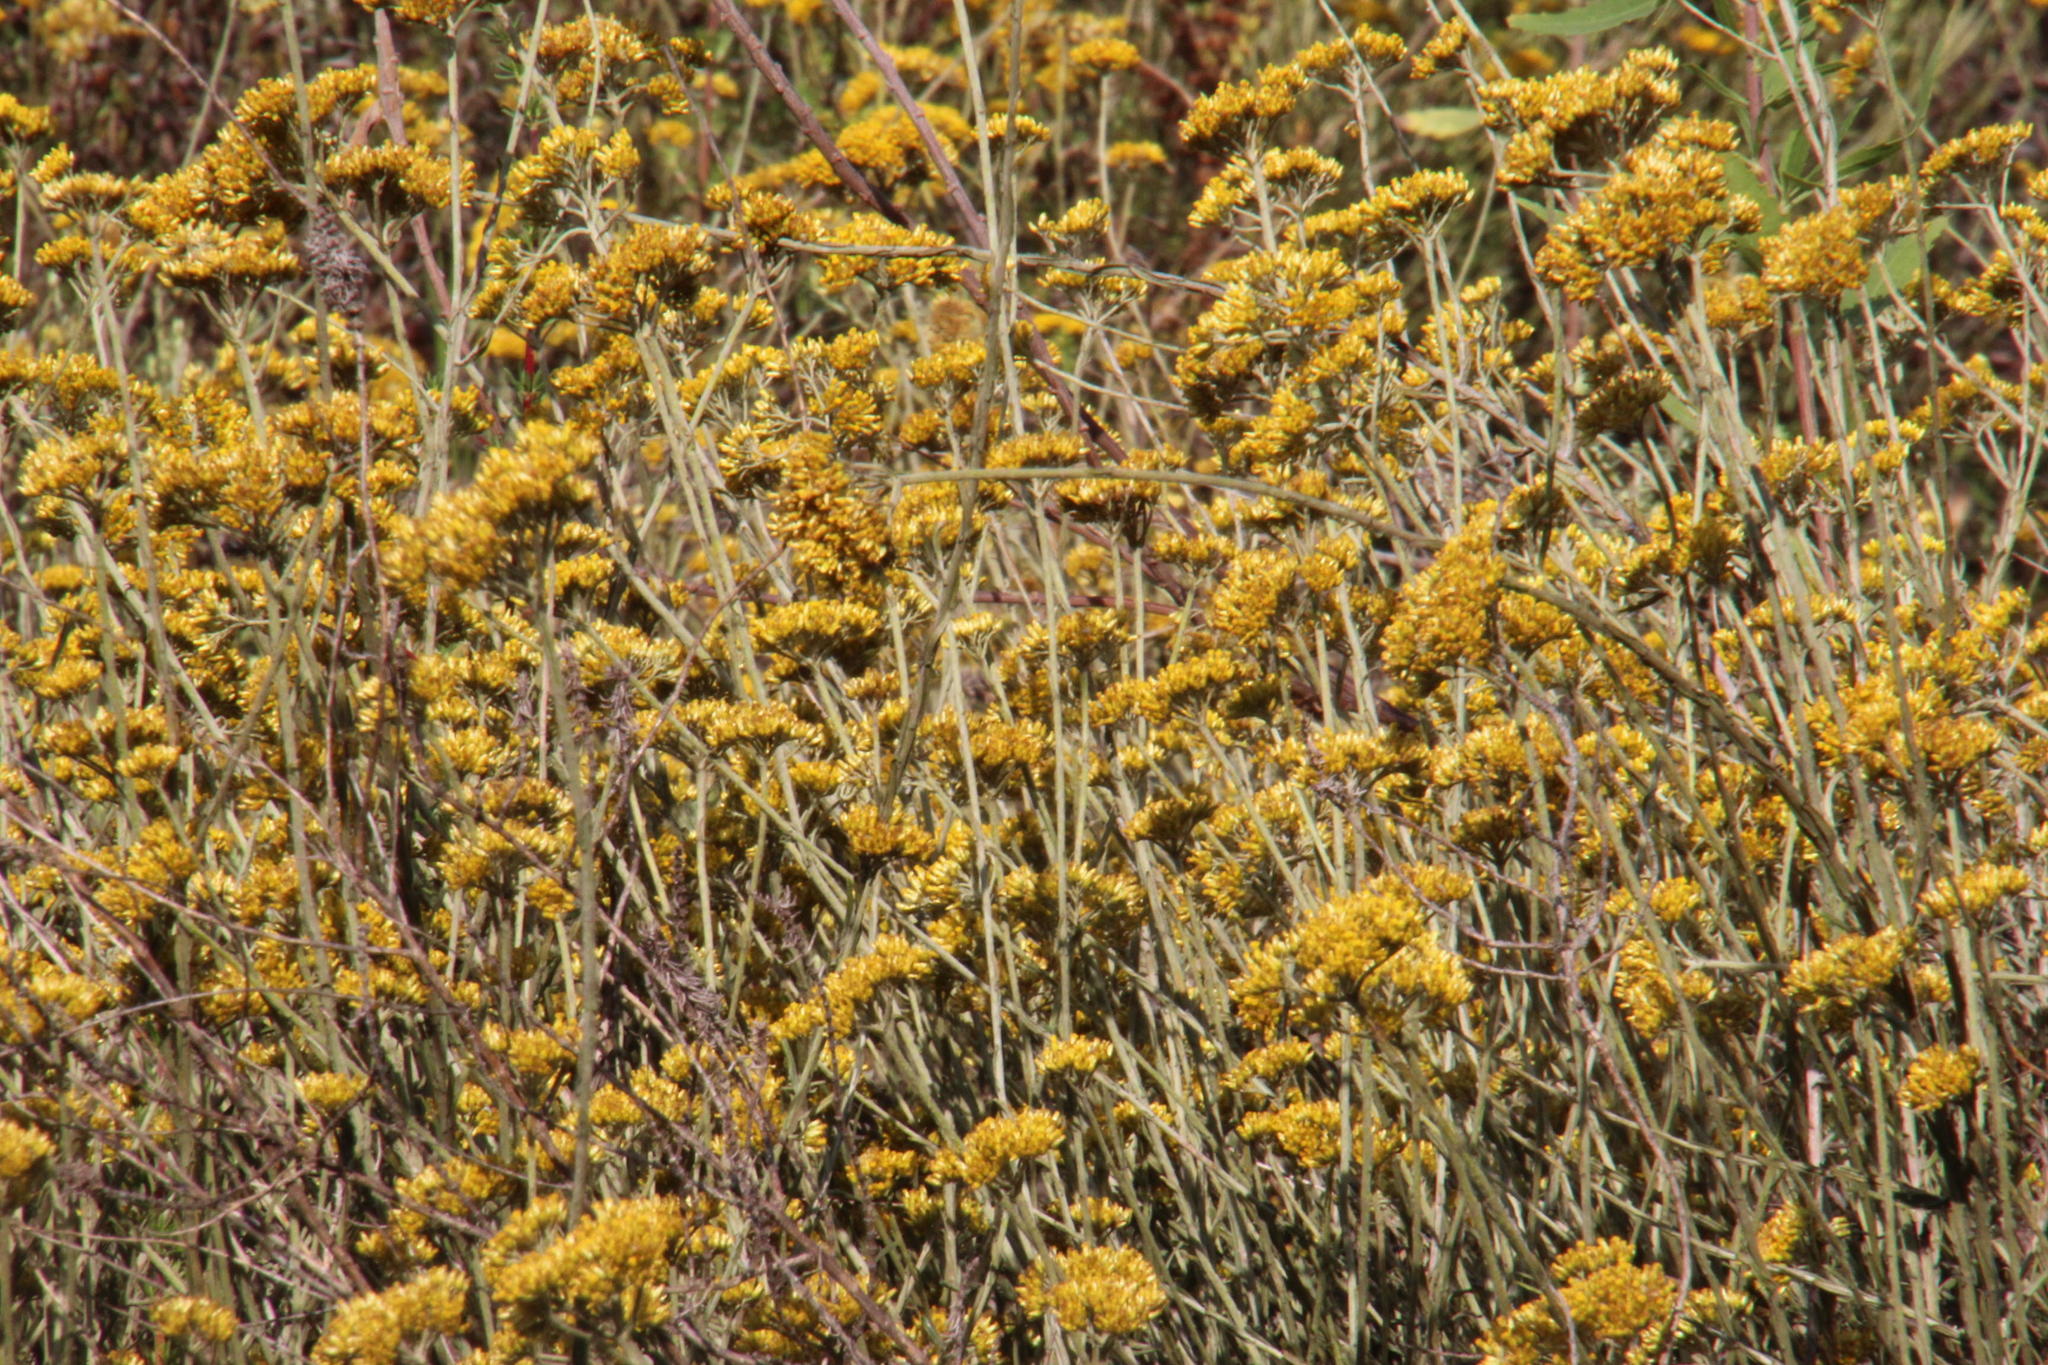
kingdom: Plantae
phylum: Tracheophyta
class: Magnoliopsida
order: Asterales
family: Asteraceae
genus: Helichrysum
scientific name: Helichrysum cymosum
